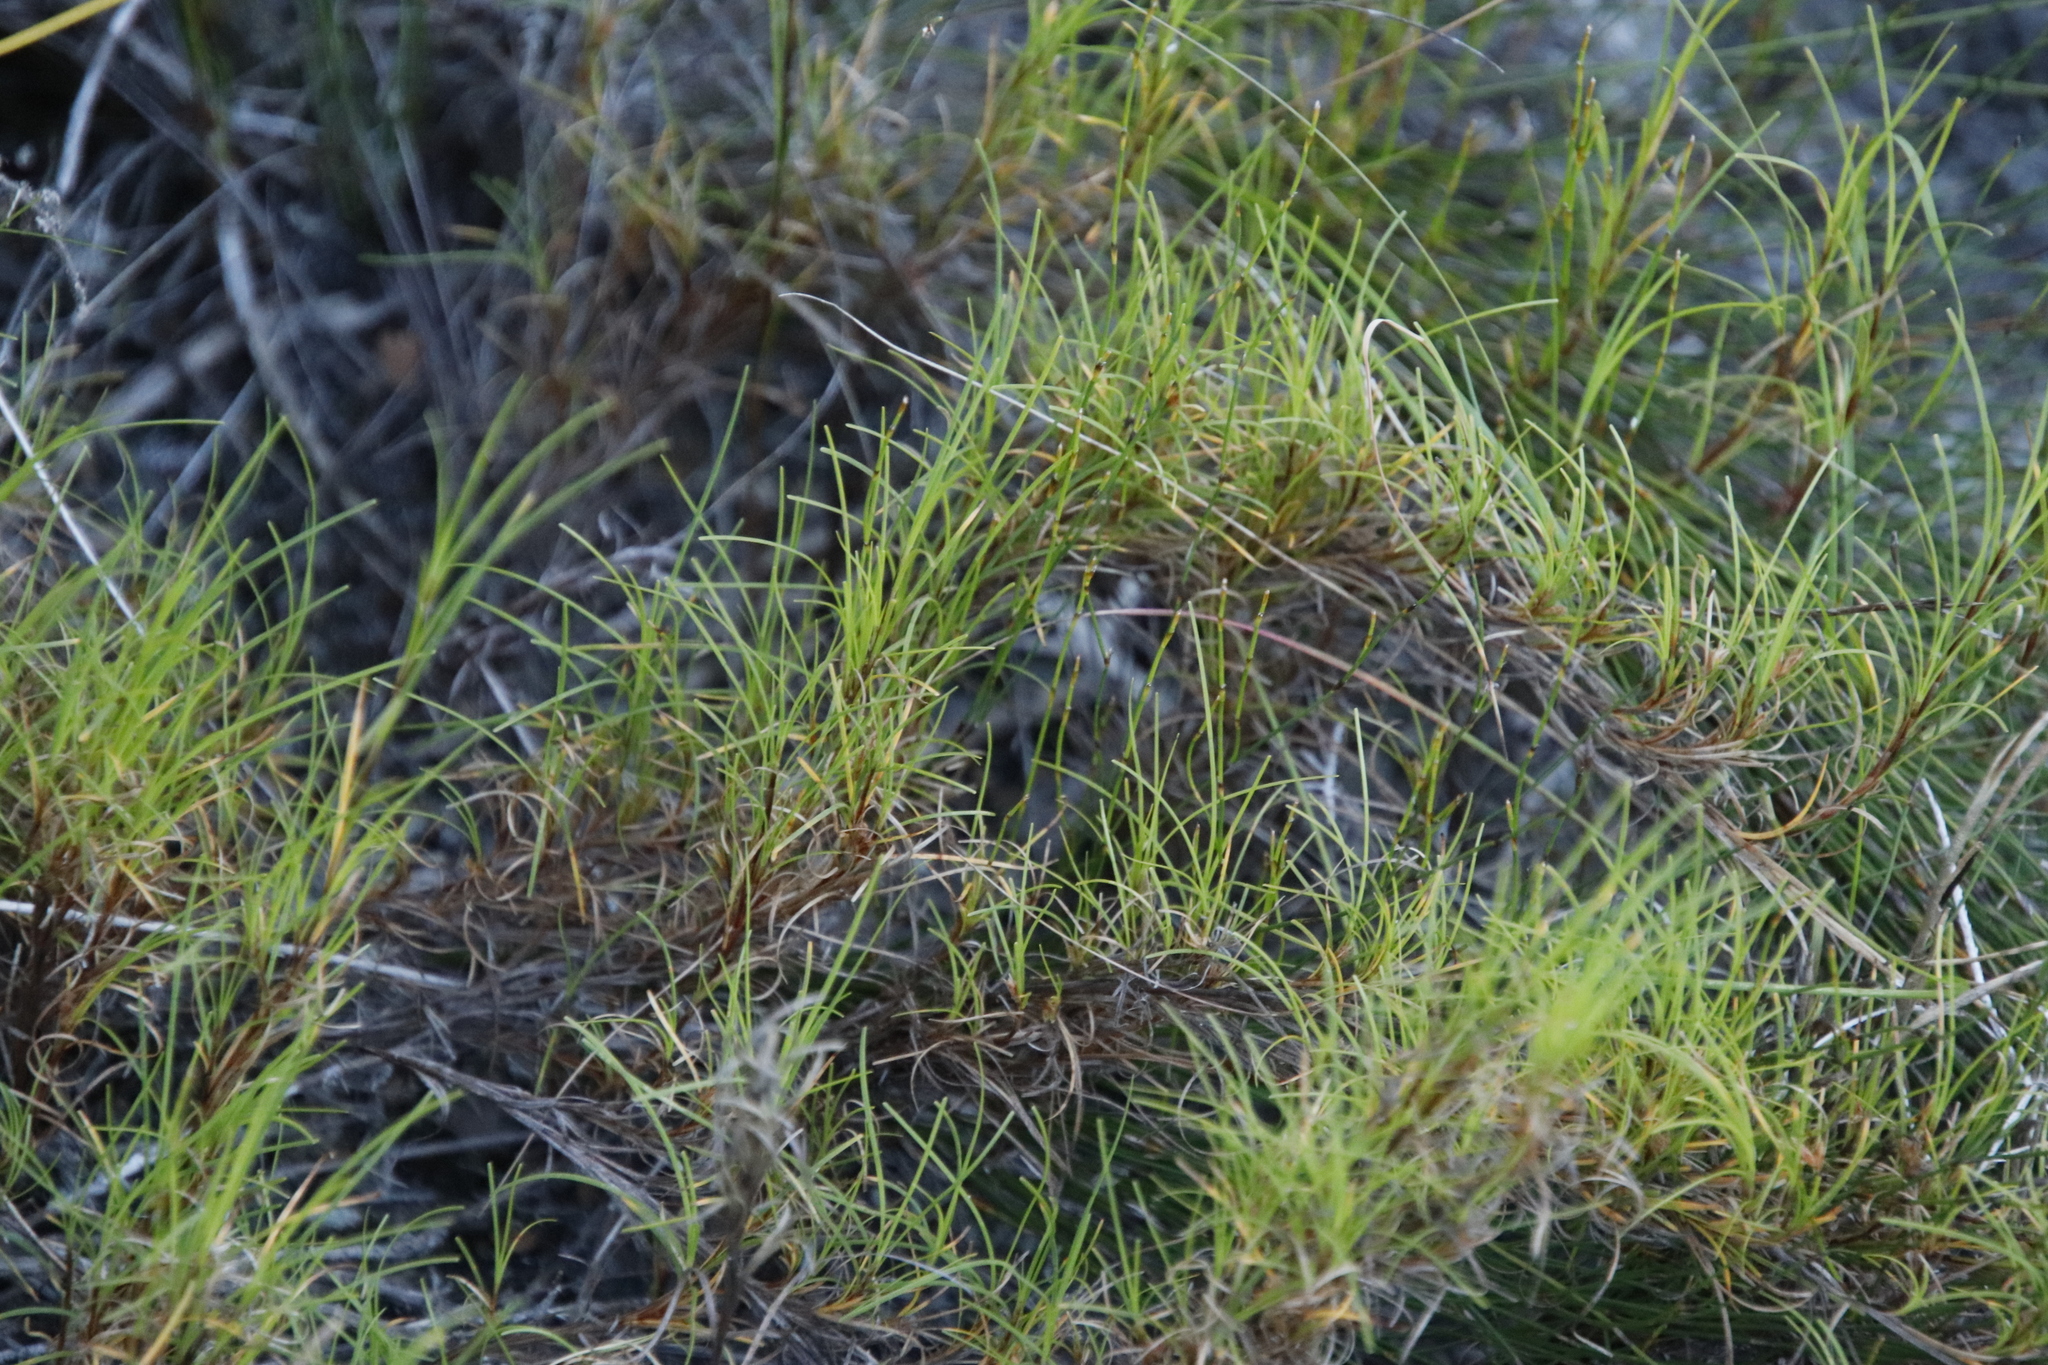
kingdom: Plantae
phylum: Tracheophyta
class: Liliopsida
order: Poales
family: Cyperaceae
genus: Ficinia
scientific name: Ficinia ramosissima
